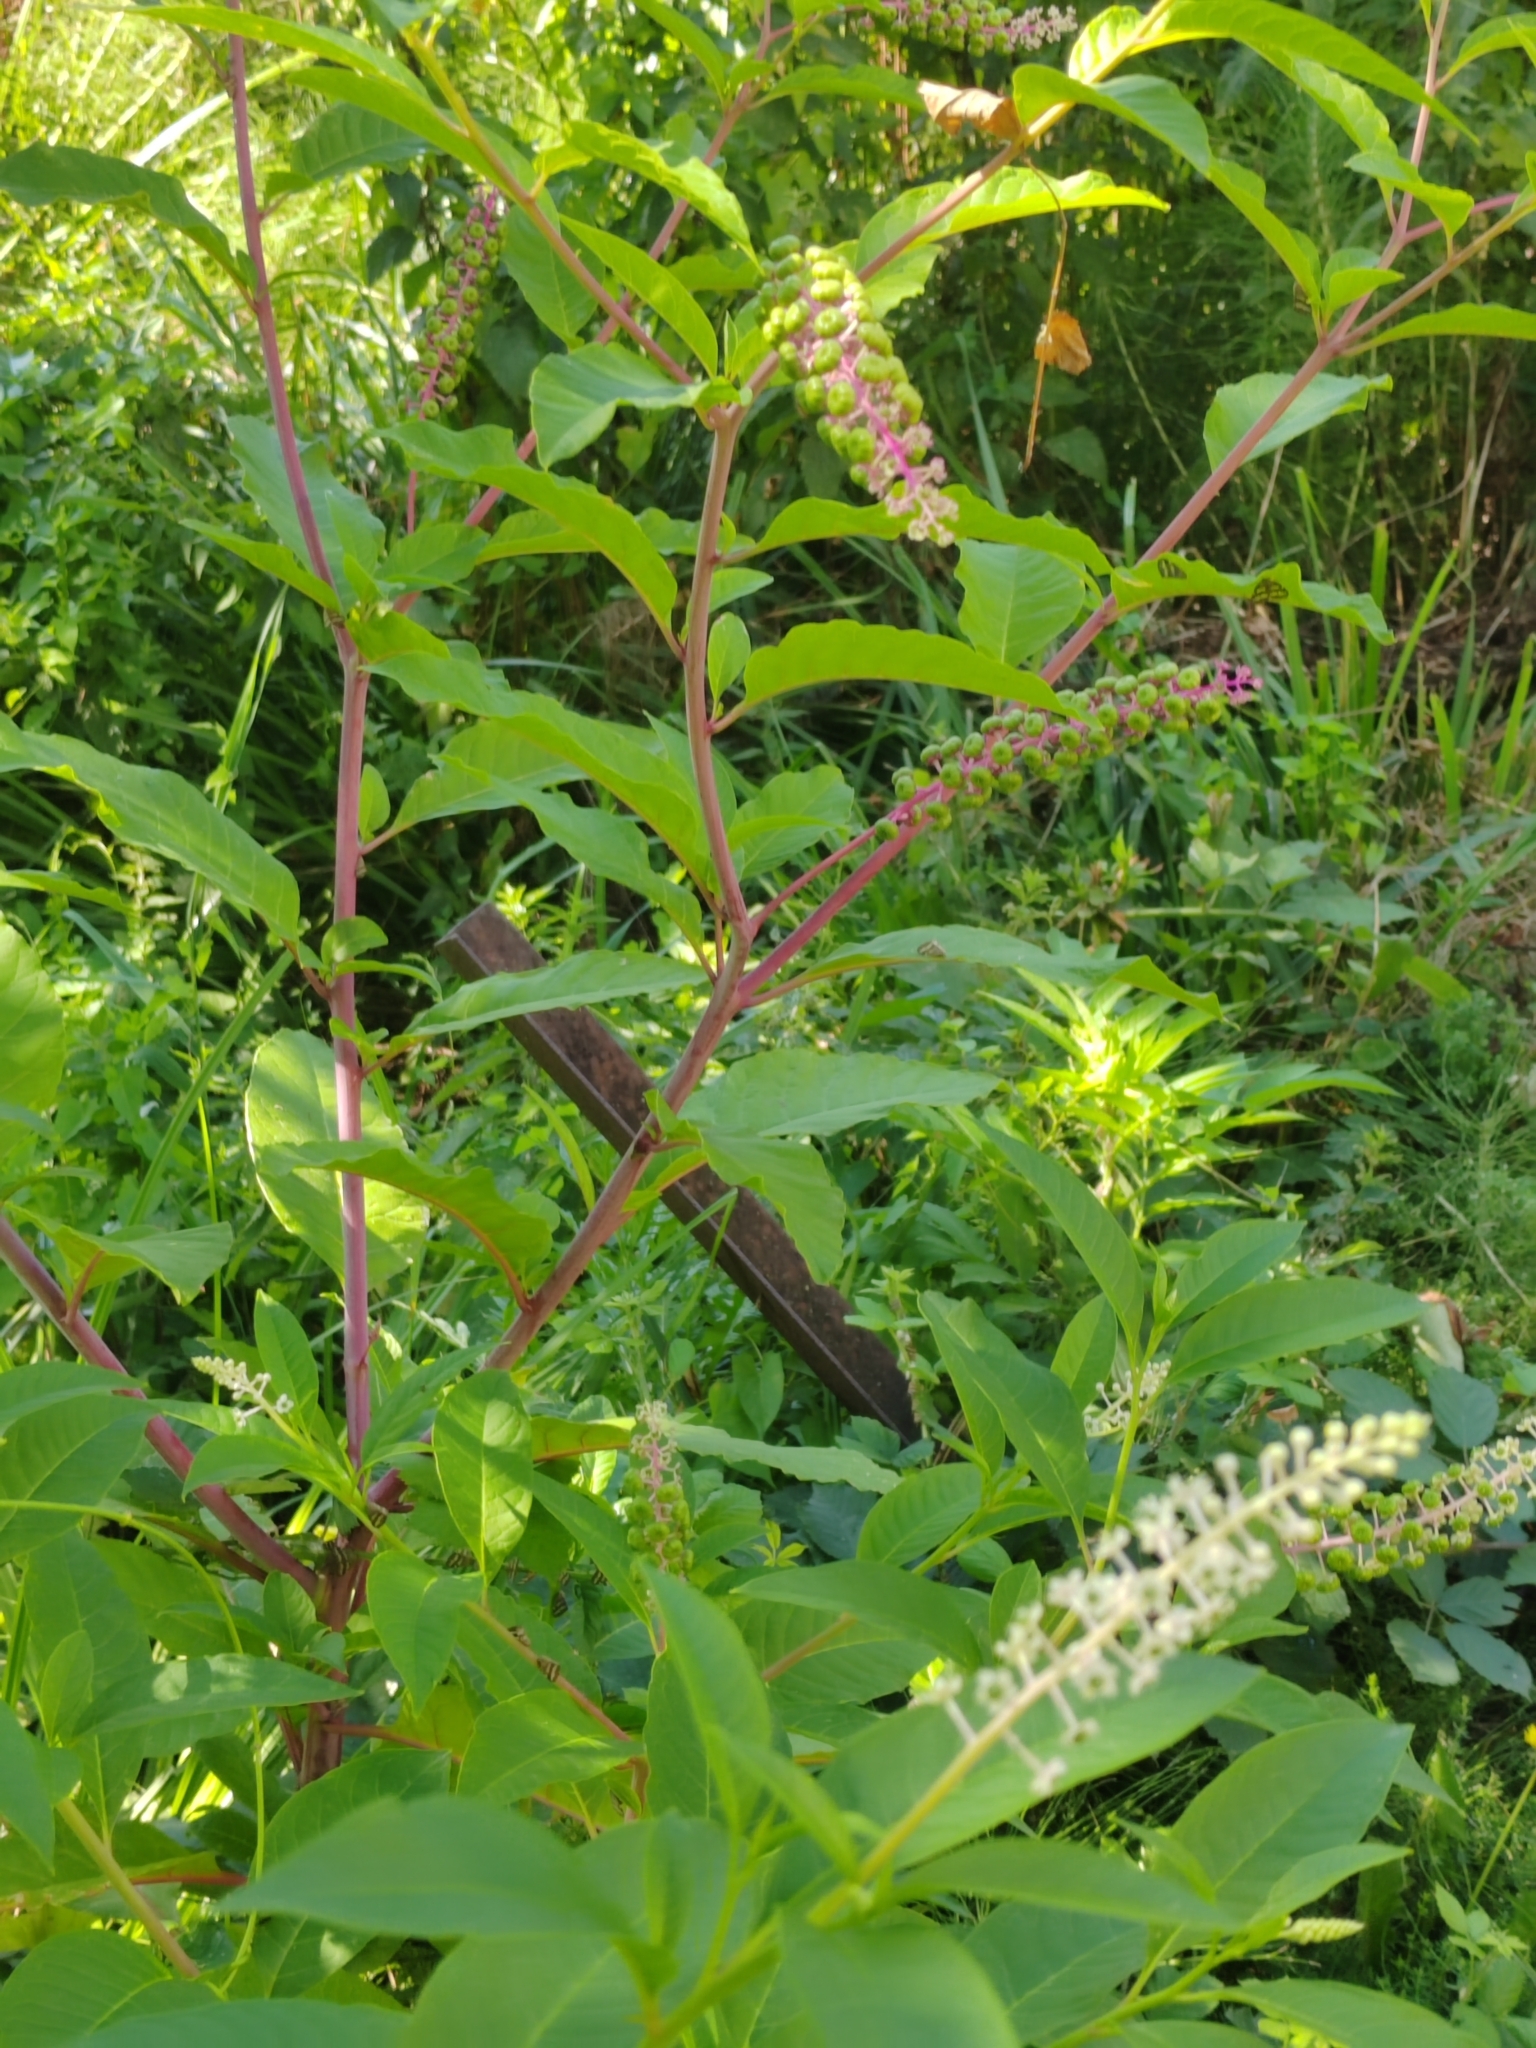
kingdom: Plantae
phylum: Tracheophyta
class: Magnoliopsida
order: Caryophyllales
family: Phytolaccaceae
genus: Phytolacca
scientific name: Phytolacca americana
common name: American pokeweed
